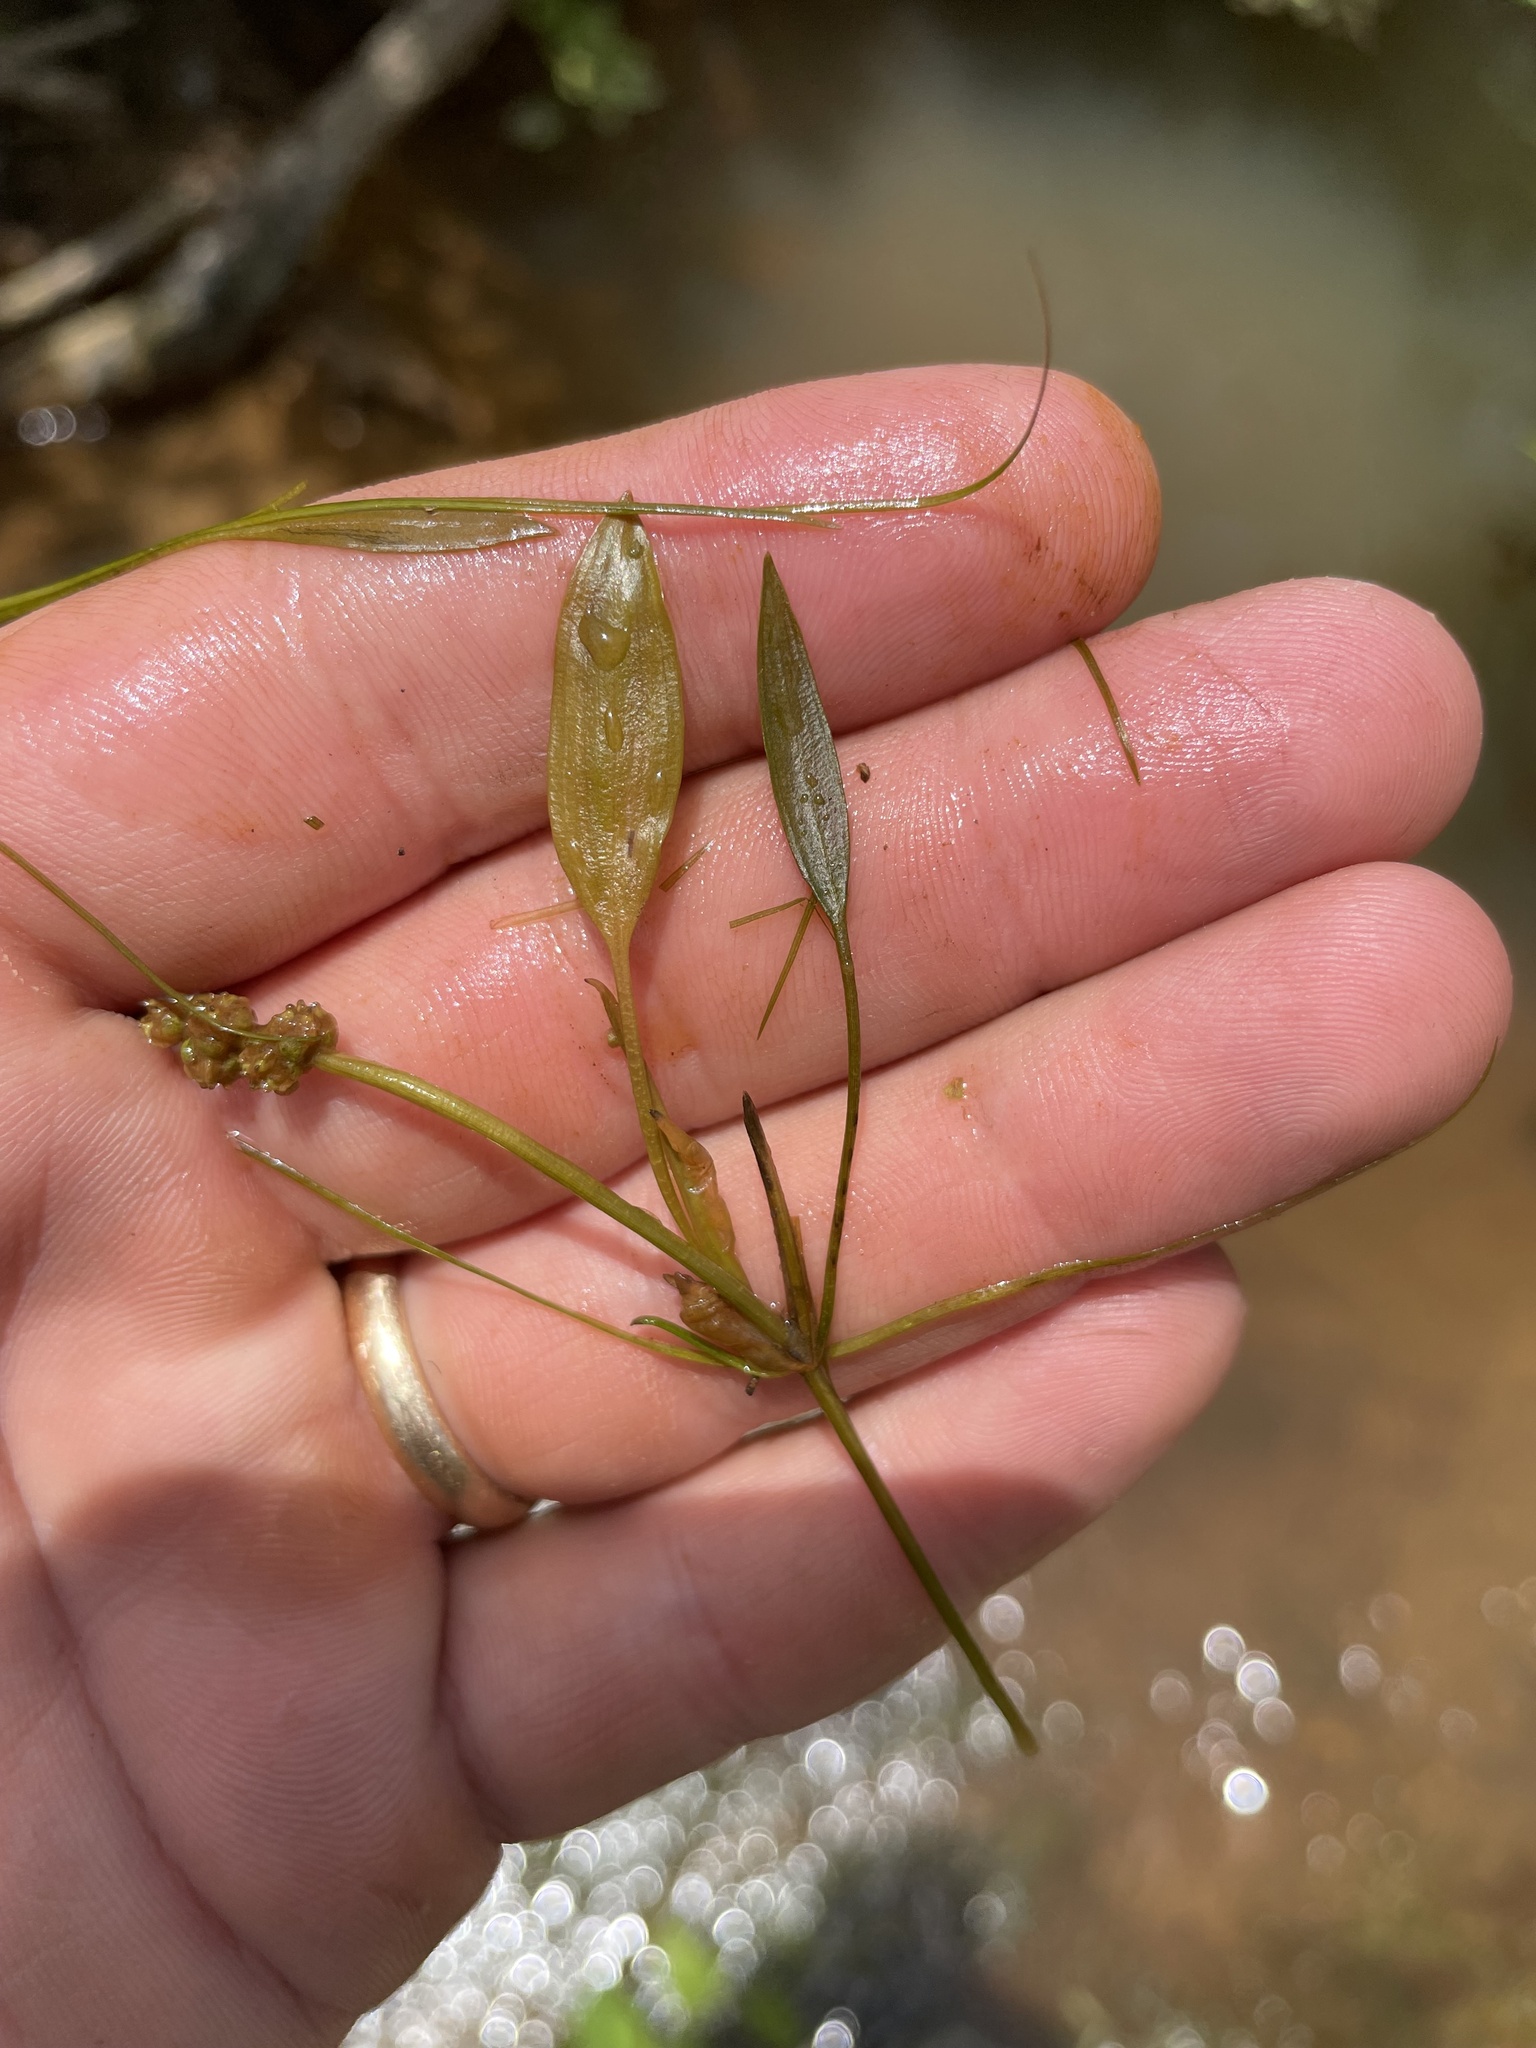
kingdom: Plantae
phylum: Tracheophyta
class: Liliopsida
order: Alismatales
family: Potamogetonaceae
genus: Potamogeton
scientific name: Potamogeton nodosus
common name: Loddon pondweed
